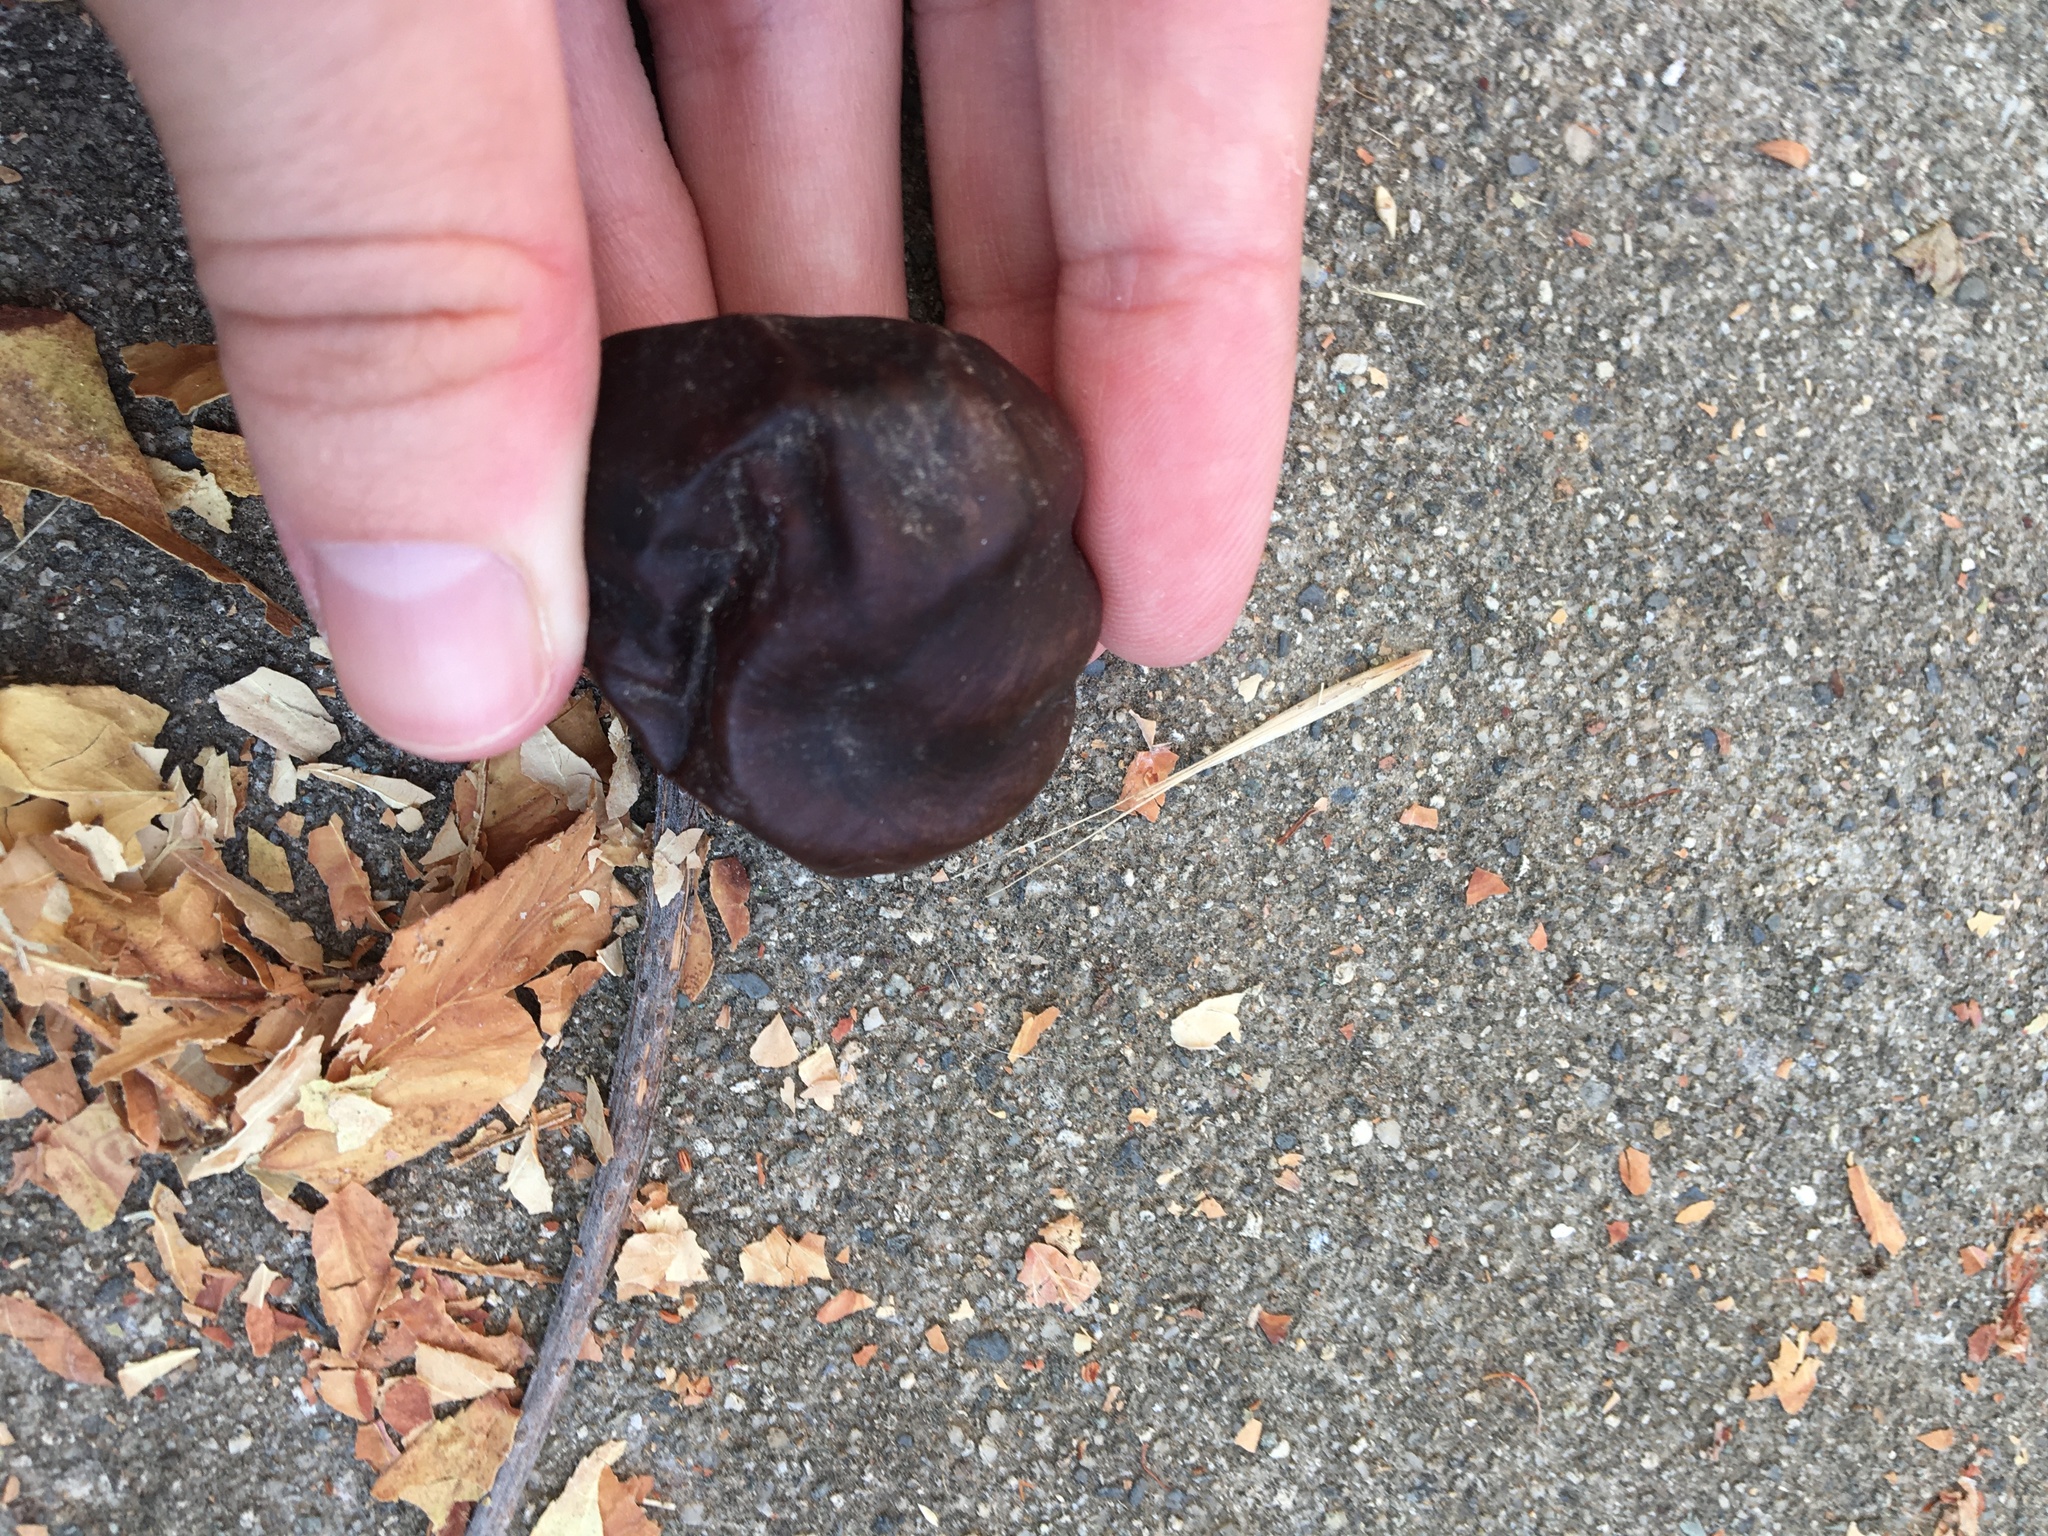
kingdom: Plantae
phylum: Tracheophyta
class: Magnoliopsida
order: Sapindales
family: Sapindaceae
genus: Aesculus
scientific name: Aesculus californica
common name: California buckeye
